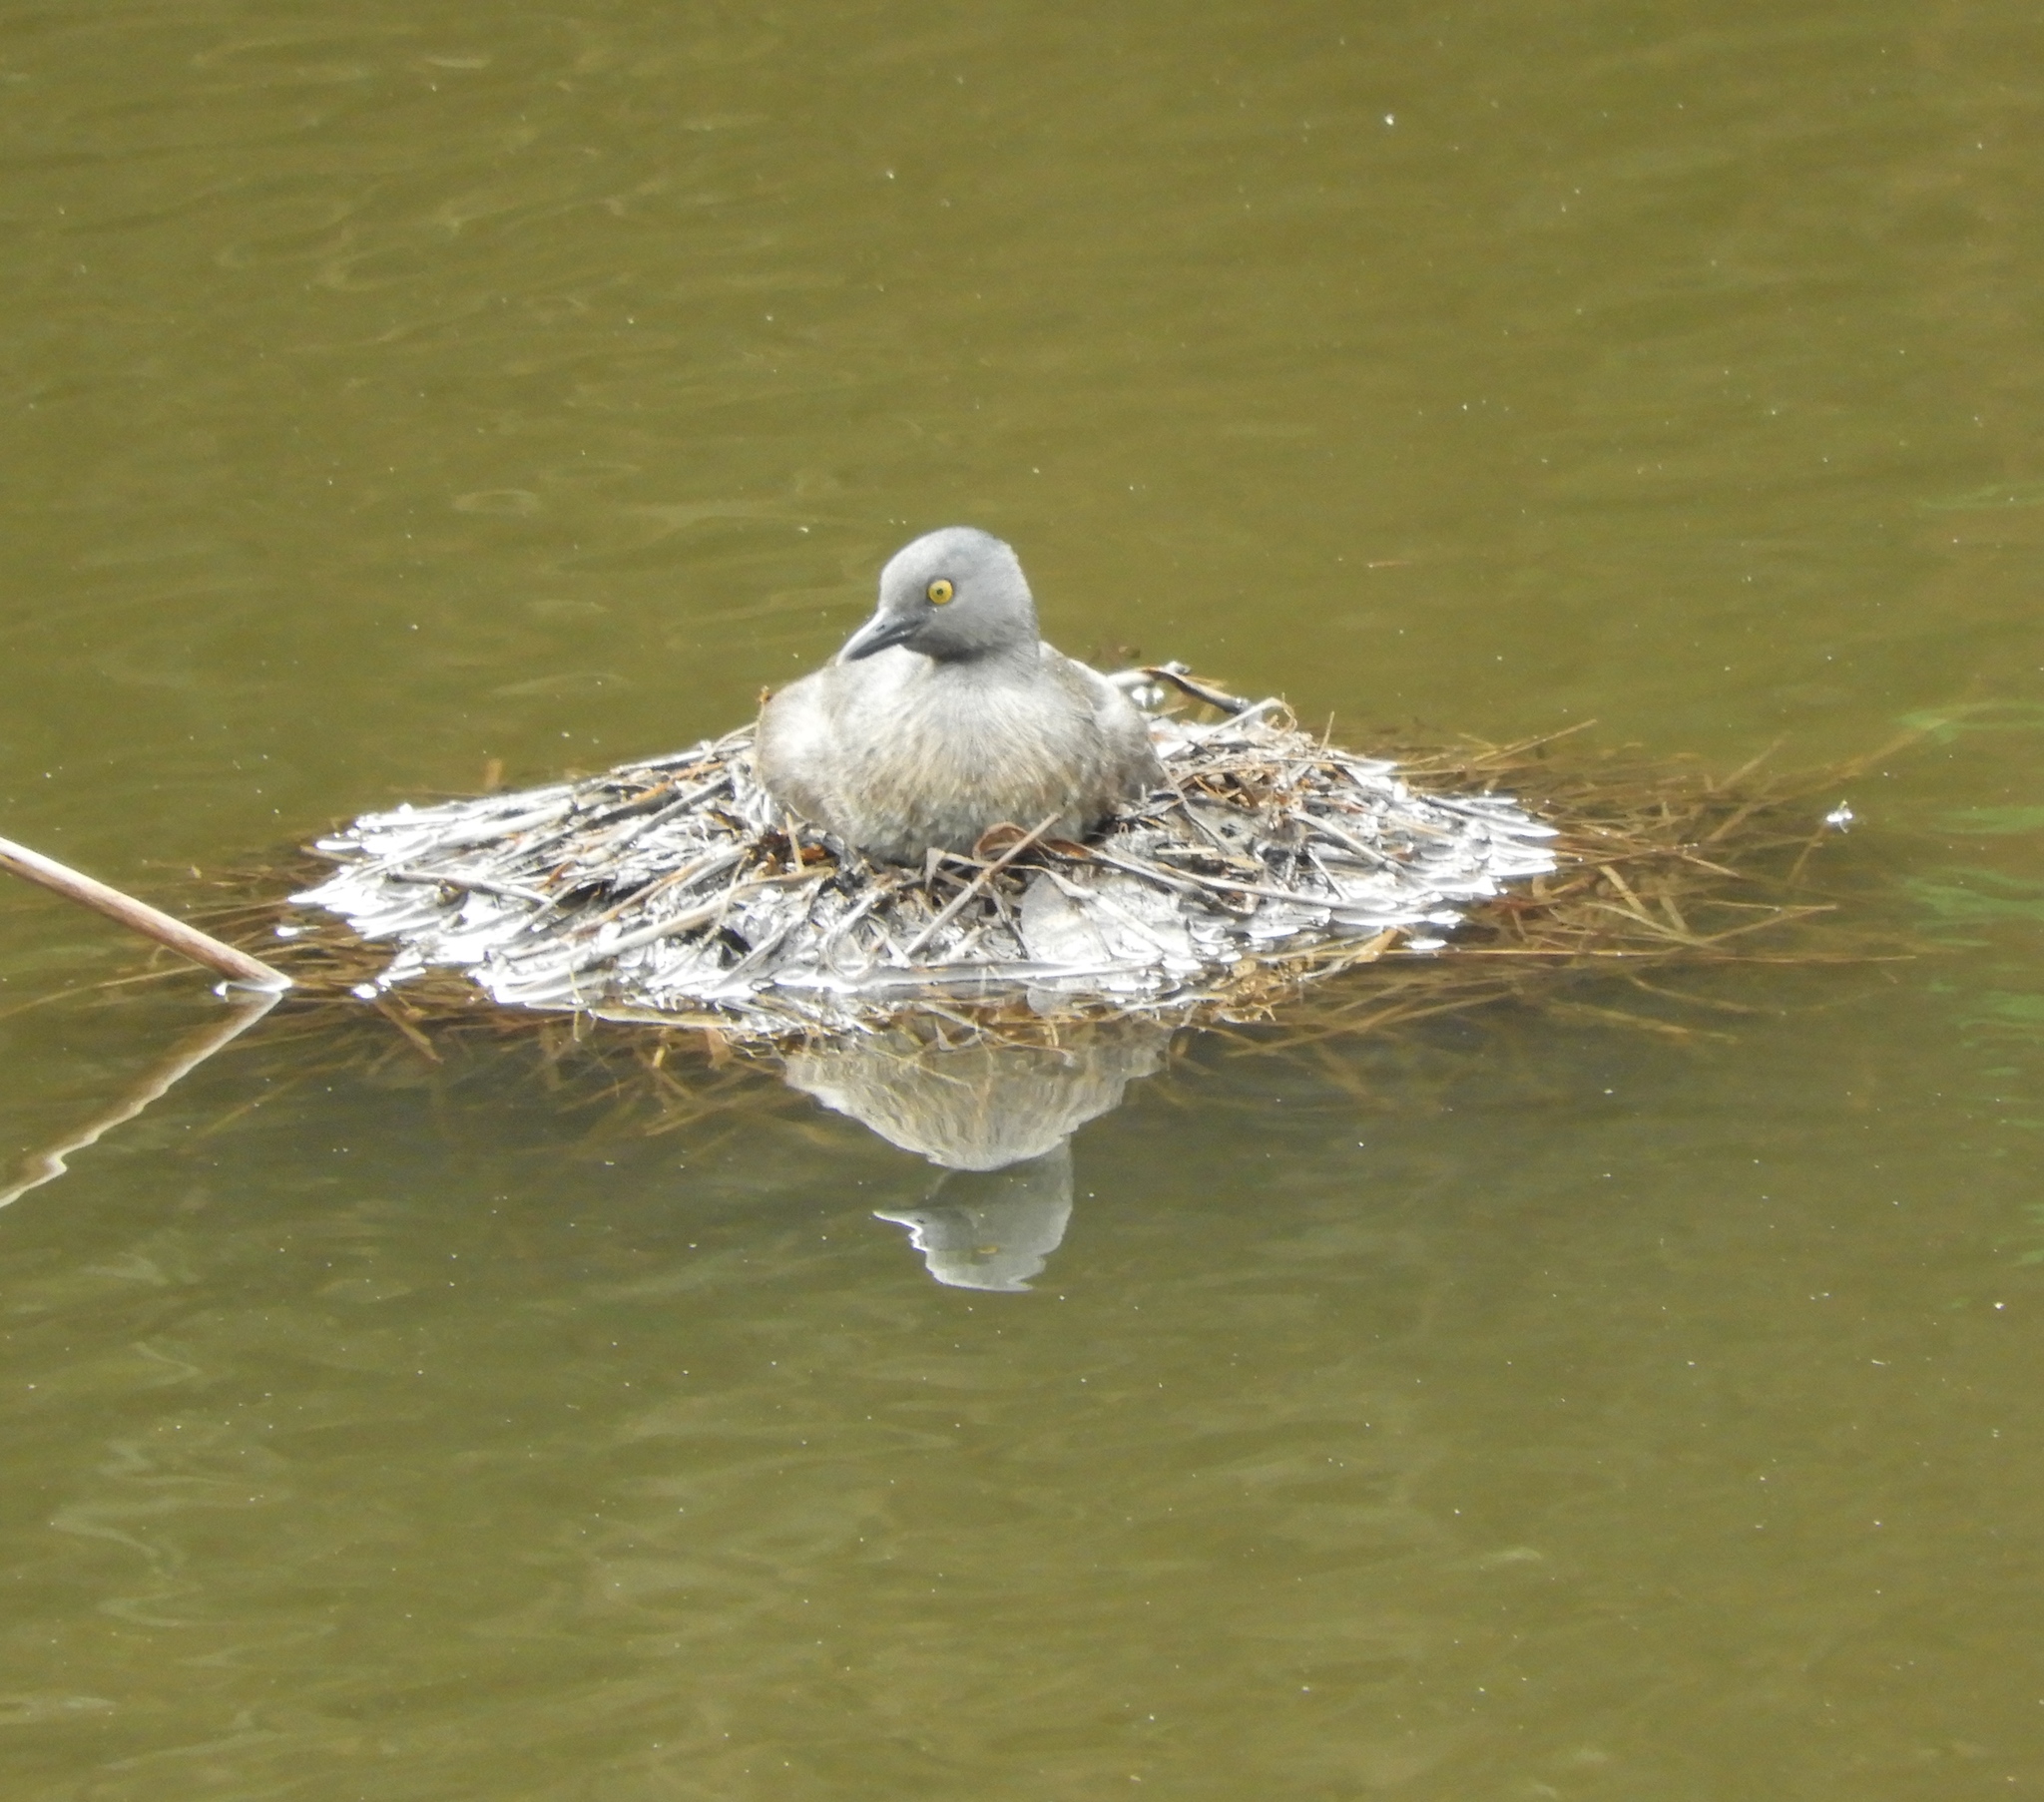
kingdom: Animalia
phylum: Chordata
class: Aves
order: Podicipediformes
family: Podicipedidae
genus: Tachybaptus
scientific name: Tachybaptus dominicus
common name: Least grebe
